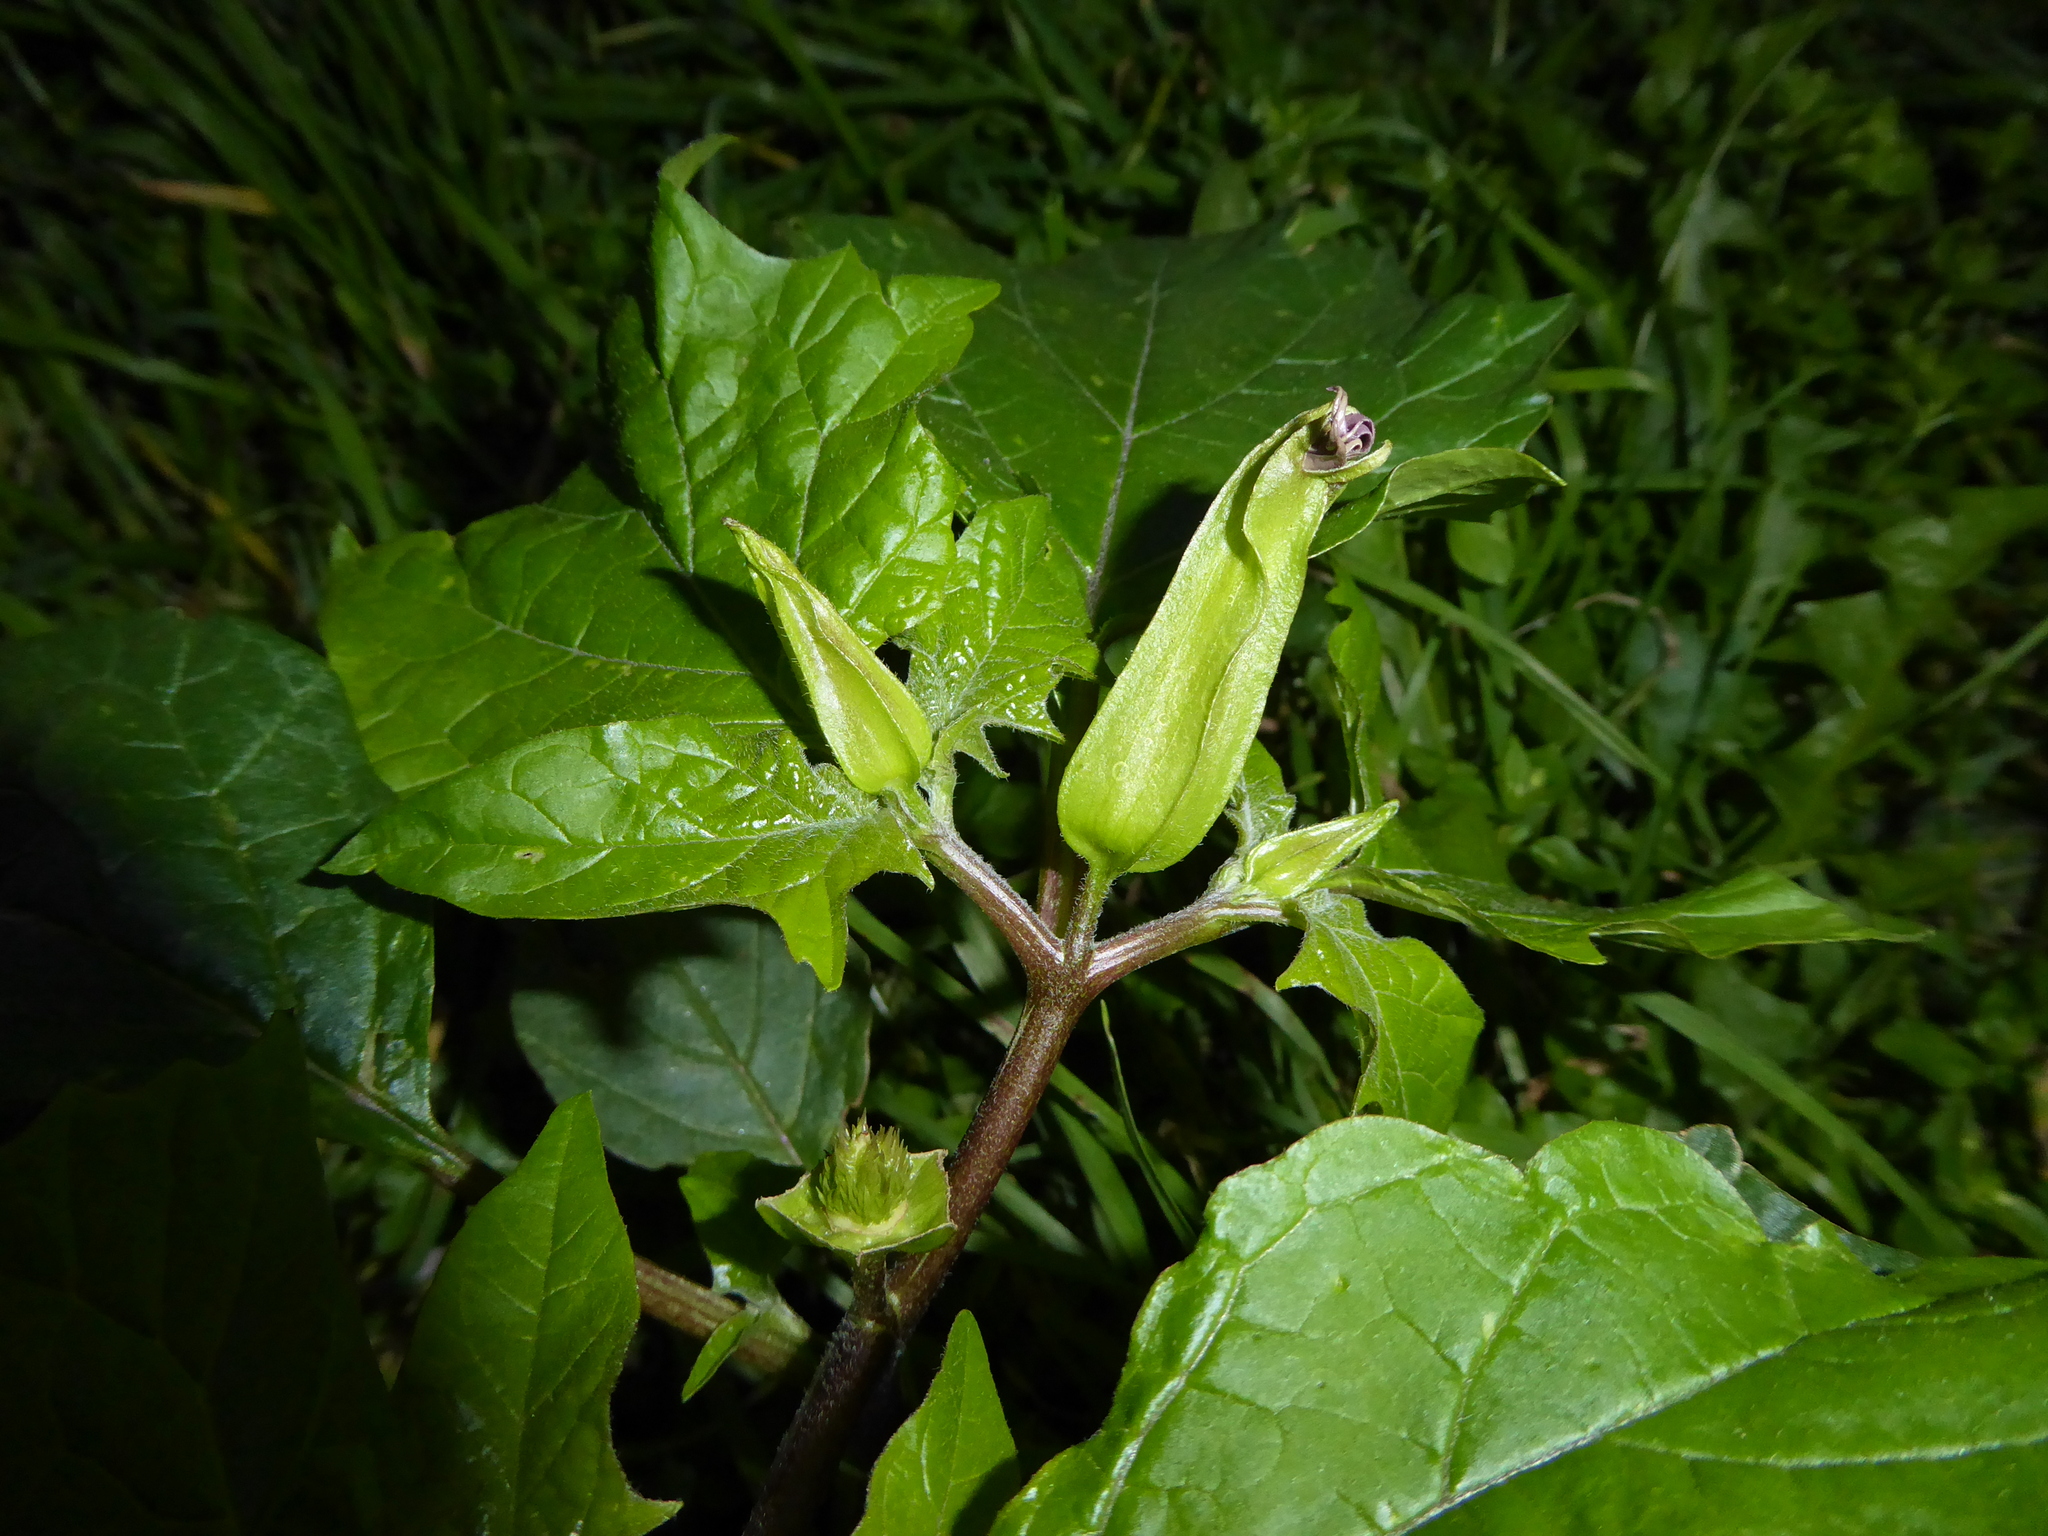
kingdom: Plantae
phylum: Tracheophyta
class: Magnoliopsida
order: Solanales
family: Solanaceae
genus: Datura
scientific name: Datura stramonium
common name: Thorn-apple
